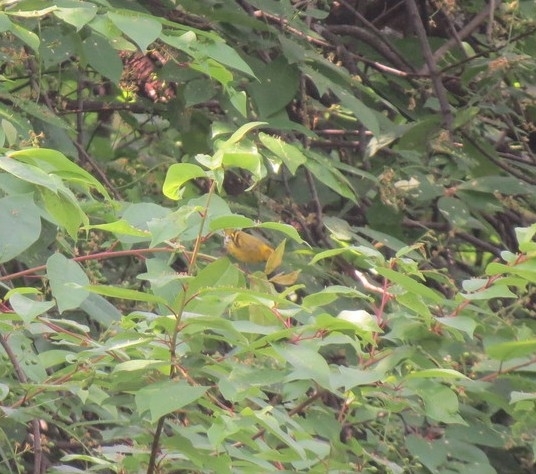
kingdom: Animalia
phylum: Chordata
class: Aves
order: Passeriformes
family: Fringillidae
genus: Spinus
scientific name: Spinus spinus
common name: Eurasian siskin
